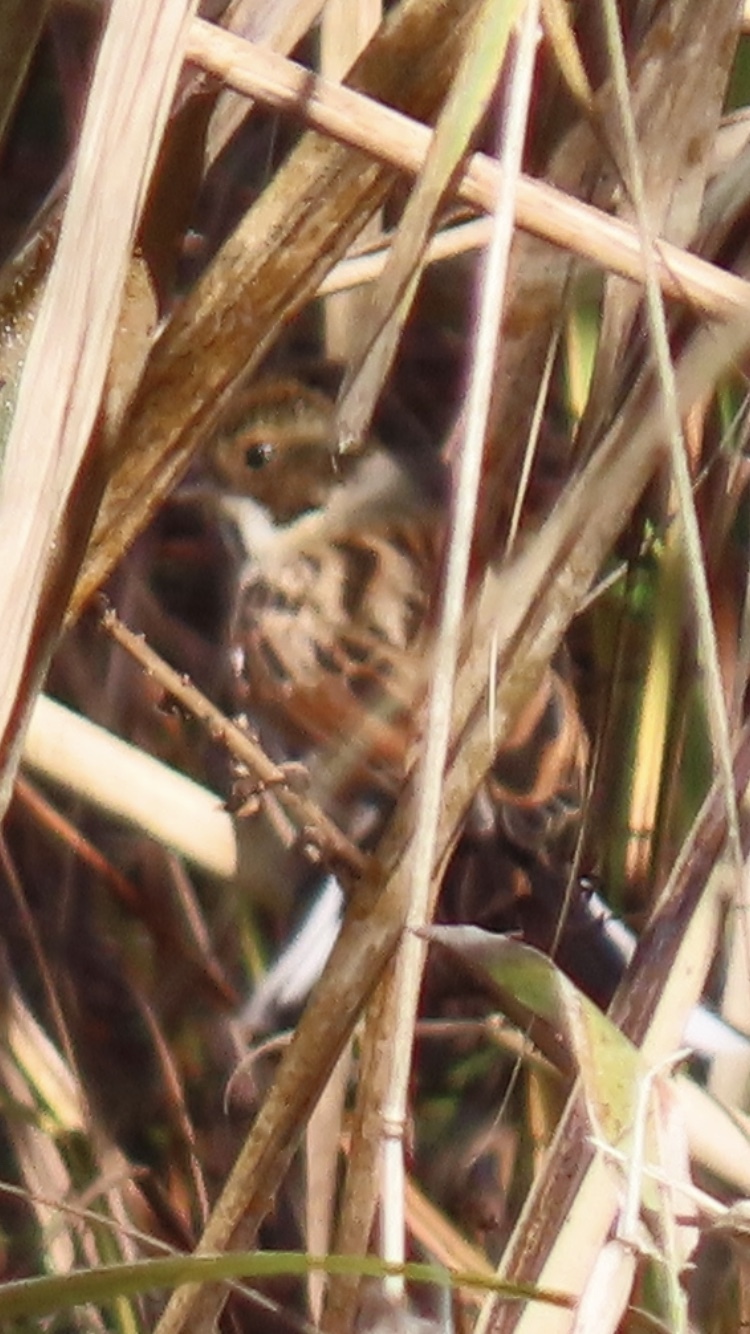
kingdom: Animalia
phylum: Chordata
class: Aves
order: Passeriformes
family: Emberizidae
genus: Emberiza
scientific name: Emberiza schoeniclus
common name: Reed bunting
